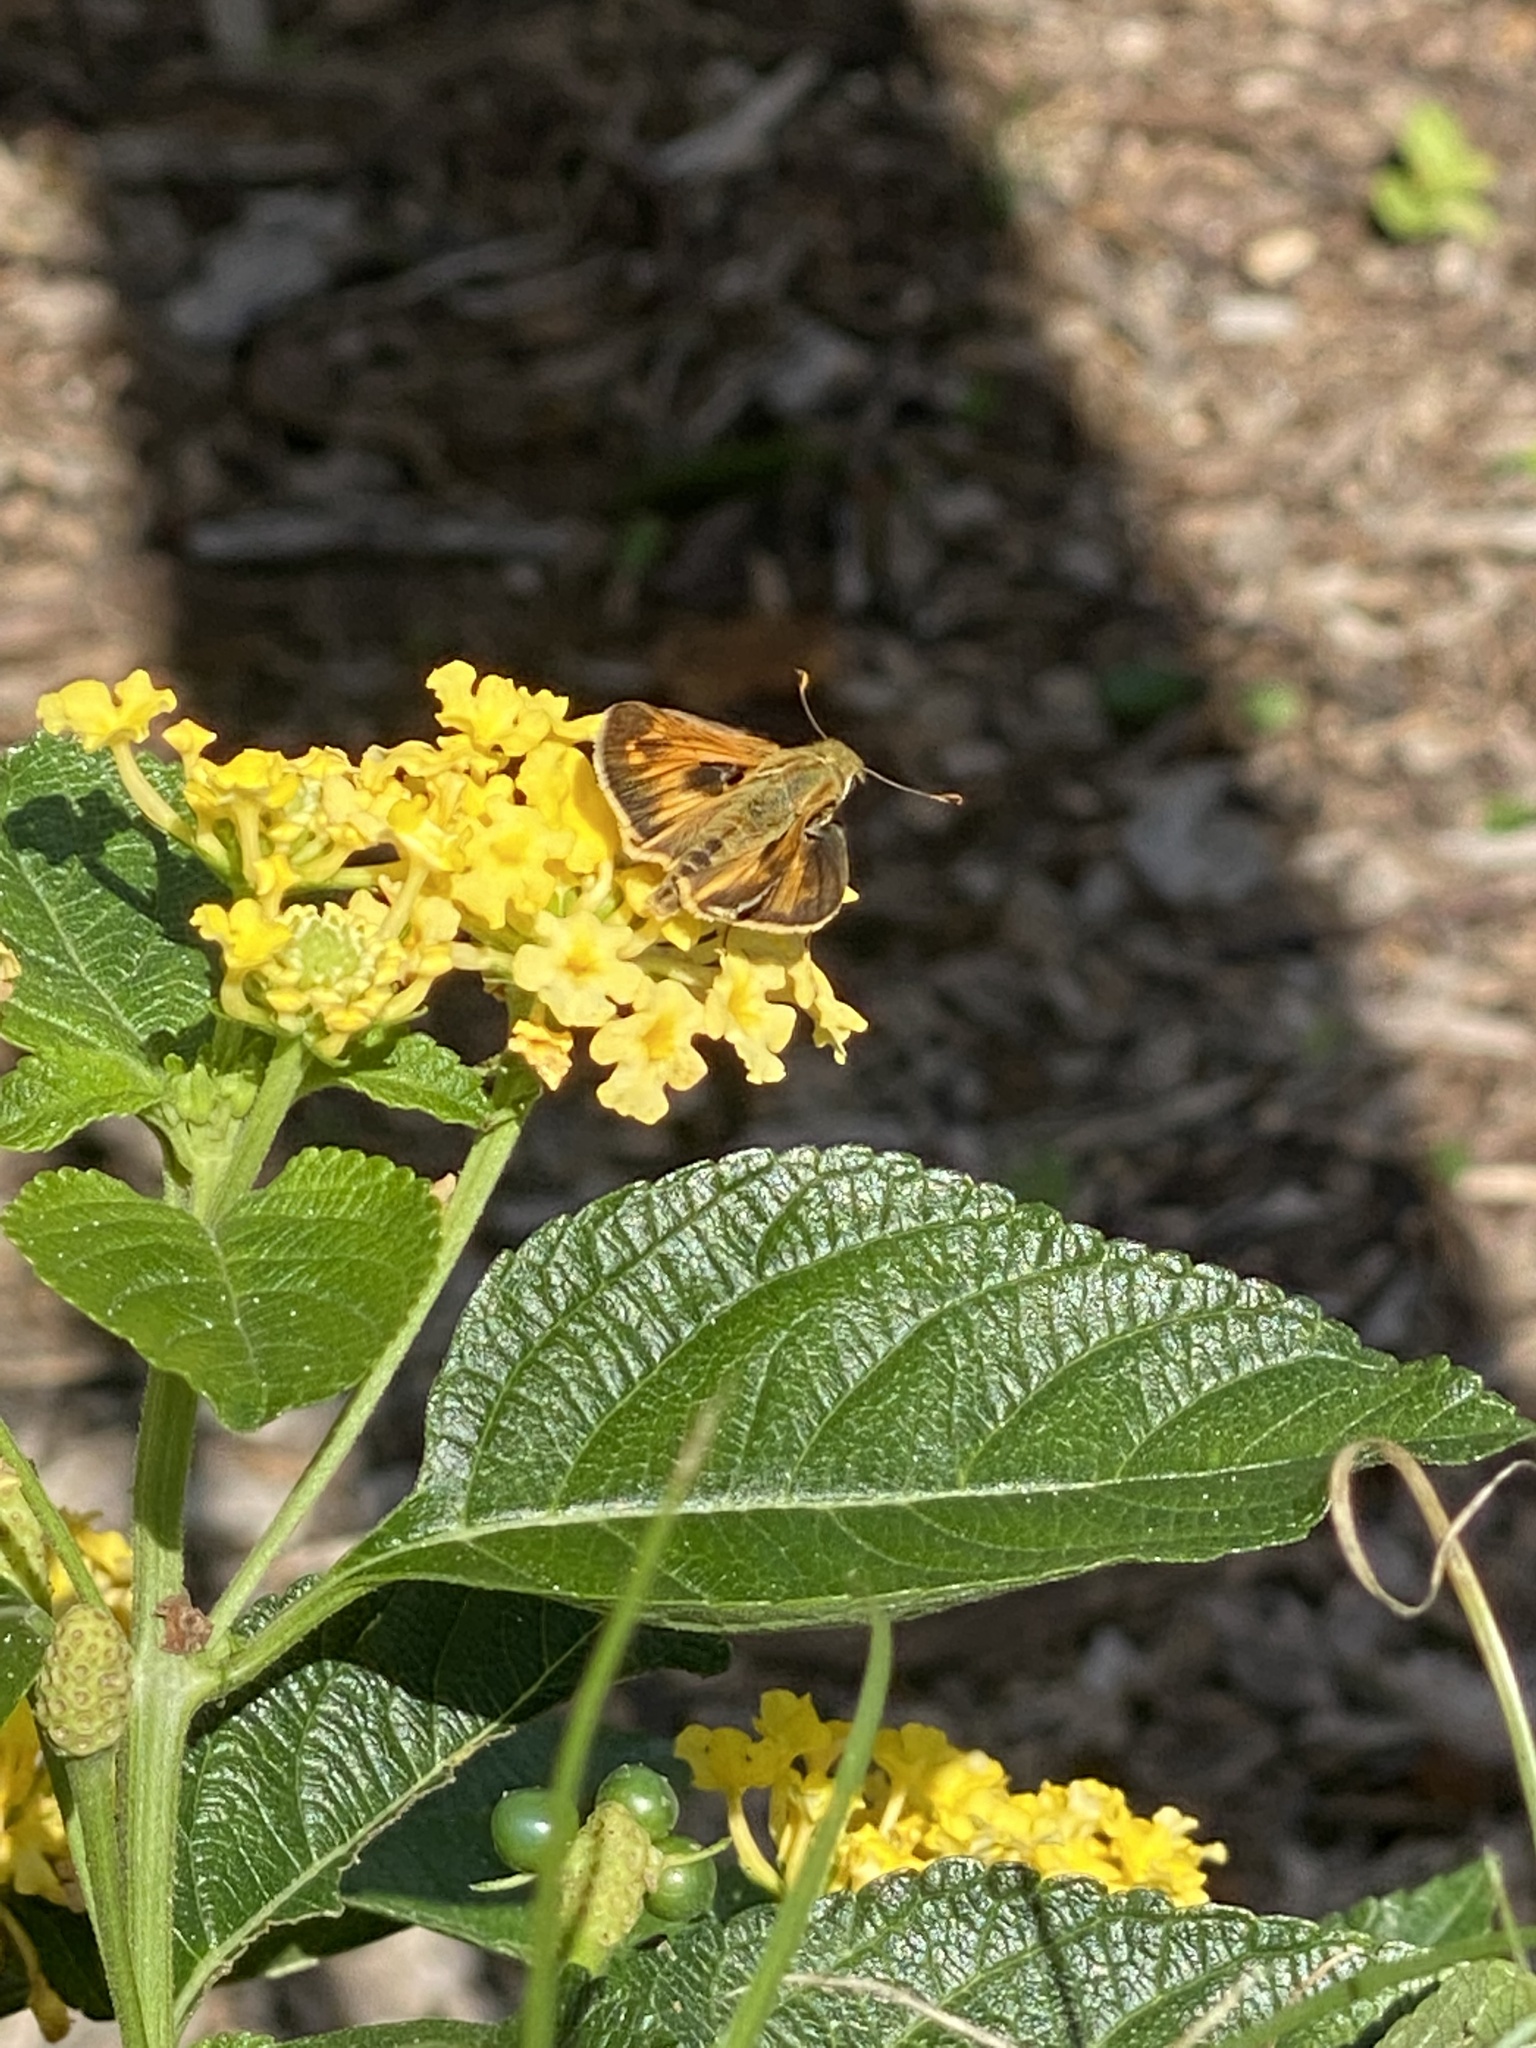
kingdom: Animalia
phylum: Arthropoda
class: Insecta
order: Lepidoptera
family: Hesperiidae
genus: Atalopedes
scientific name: Atalopedes
